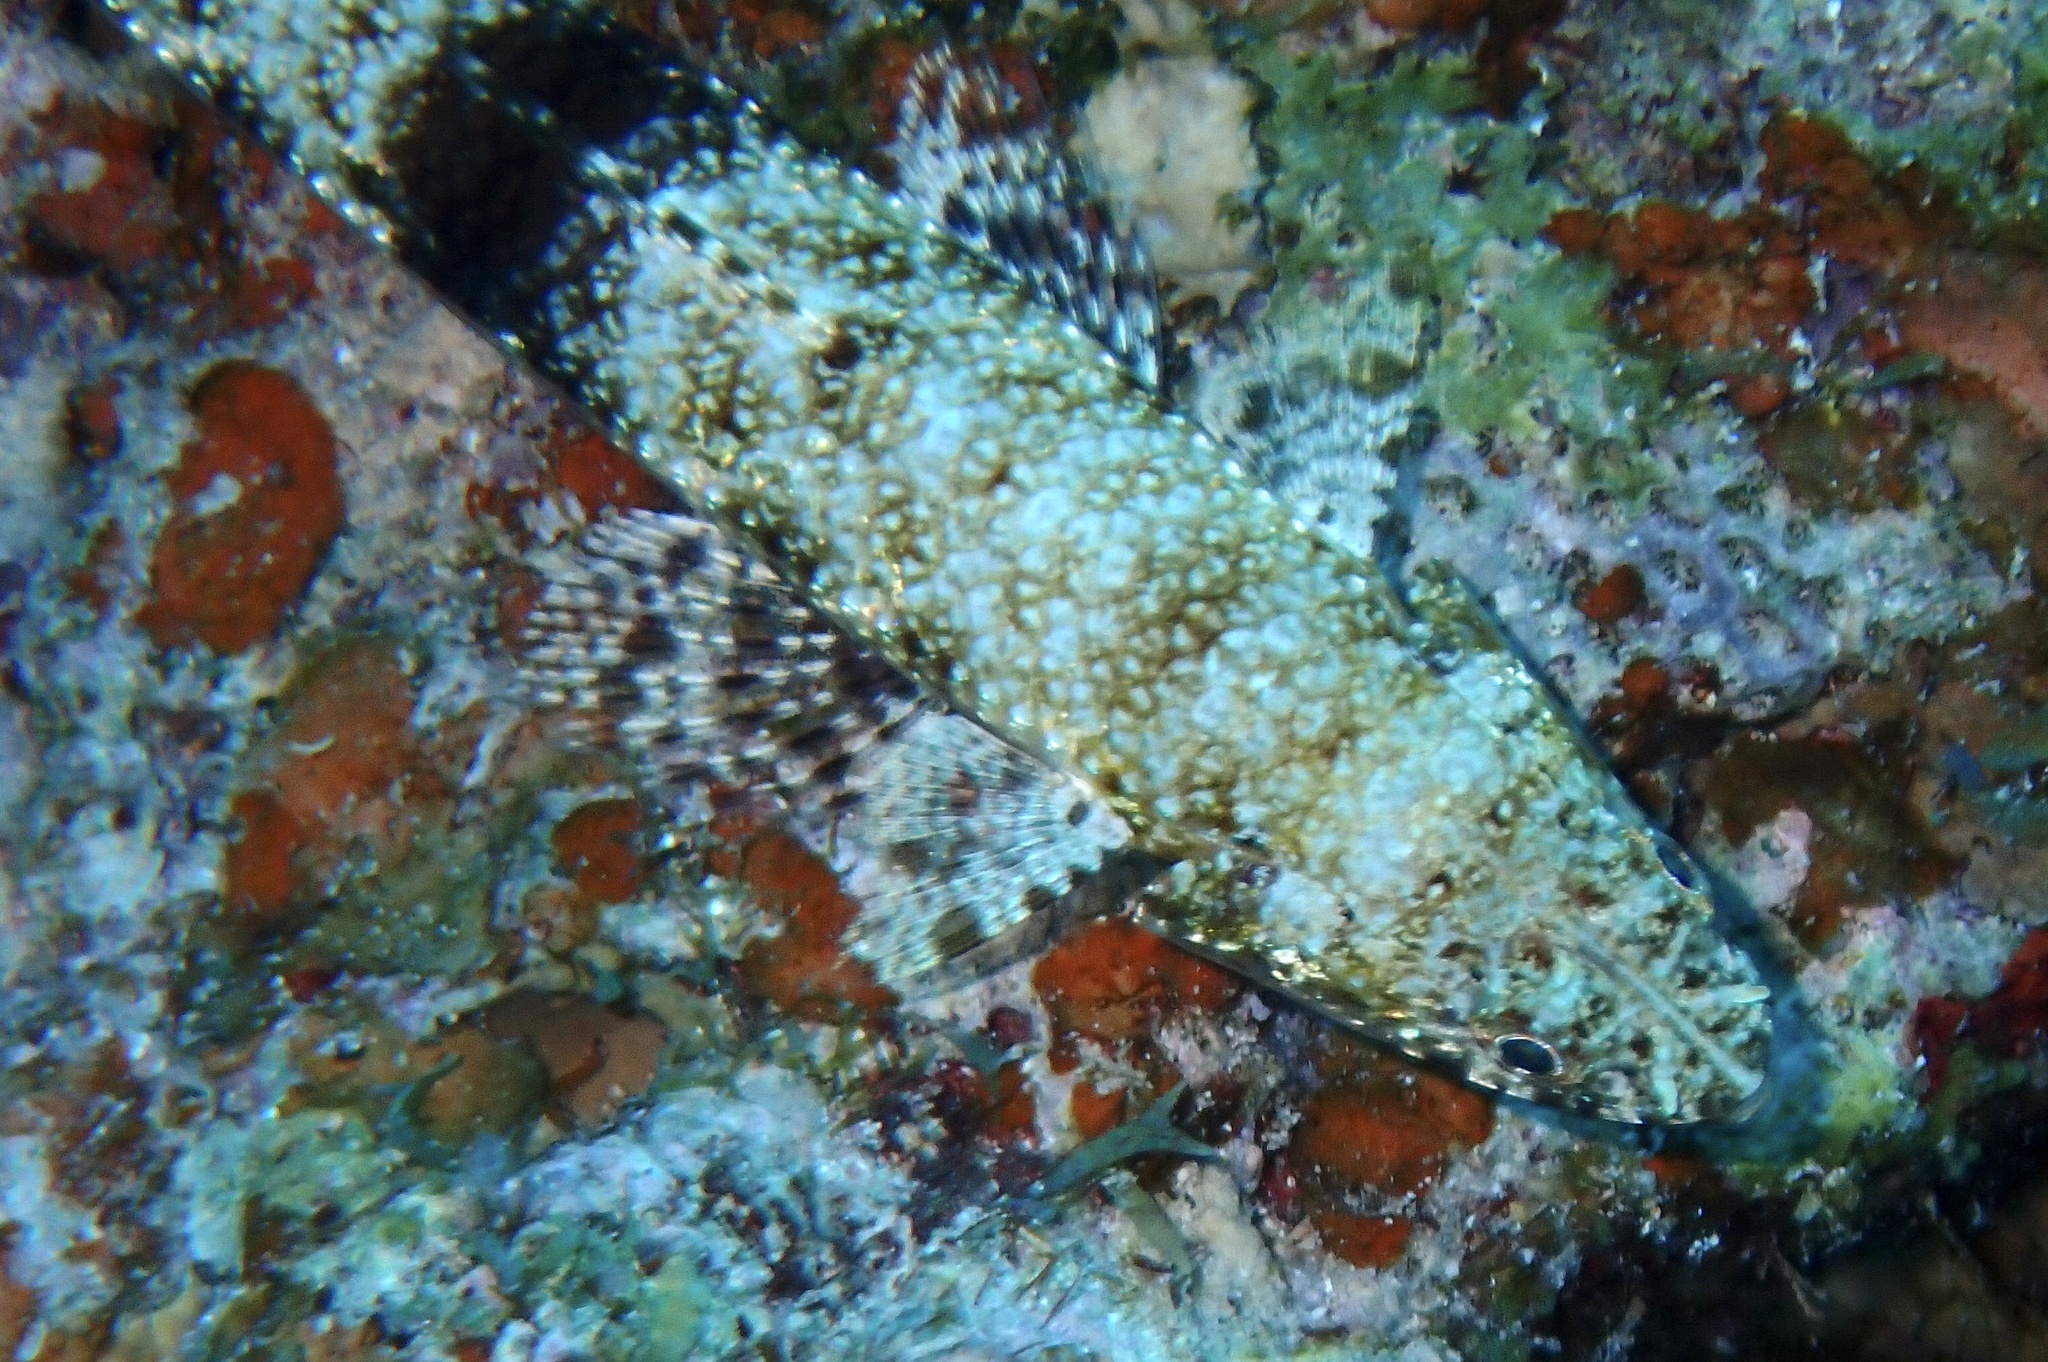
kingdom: Animalia
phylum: Chordata
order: Aulopiformes
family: Synodontidae
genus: Saurida
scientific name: Saurida gracilis
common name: Slender lizardfish
